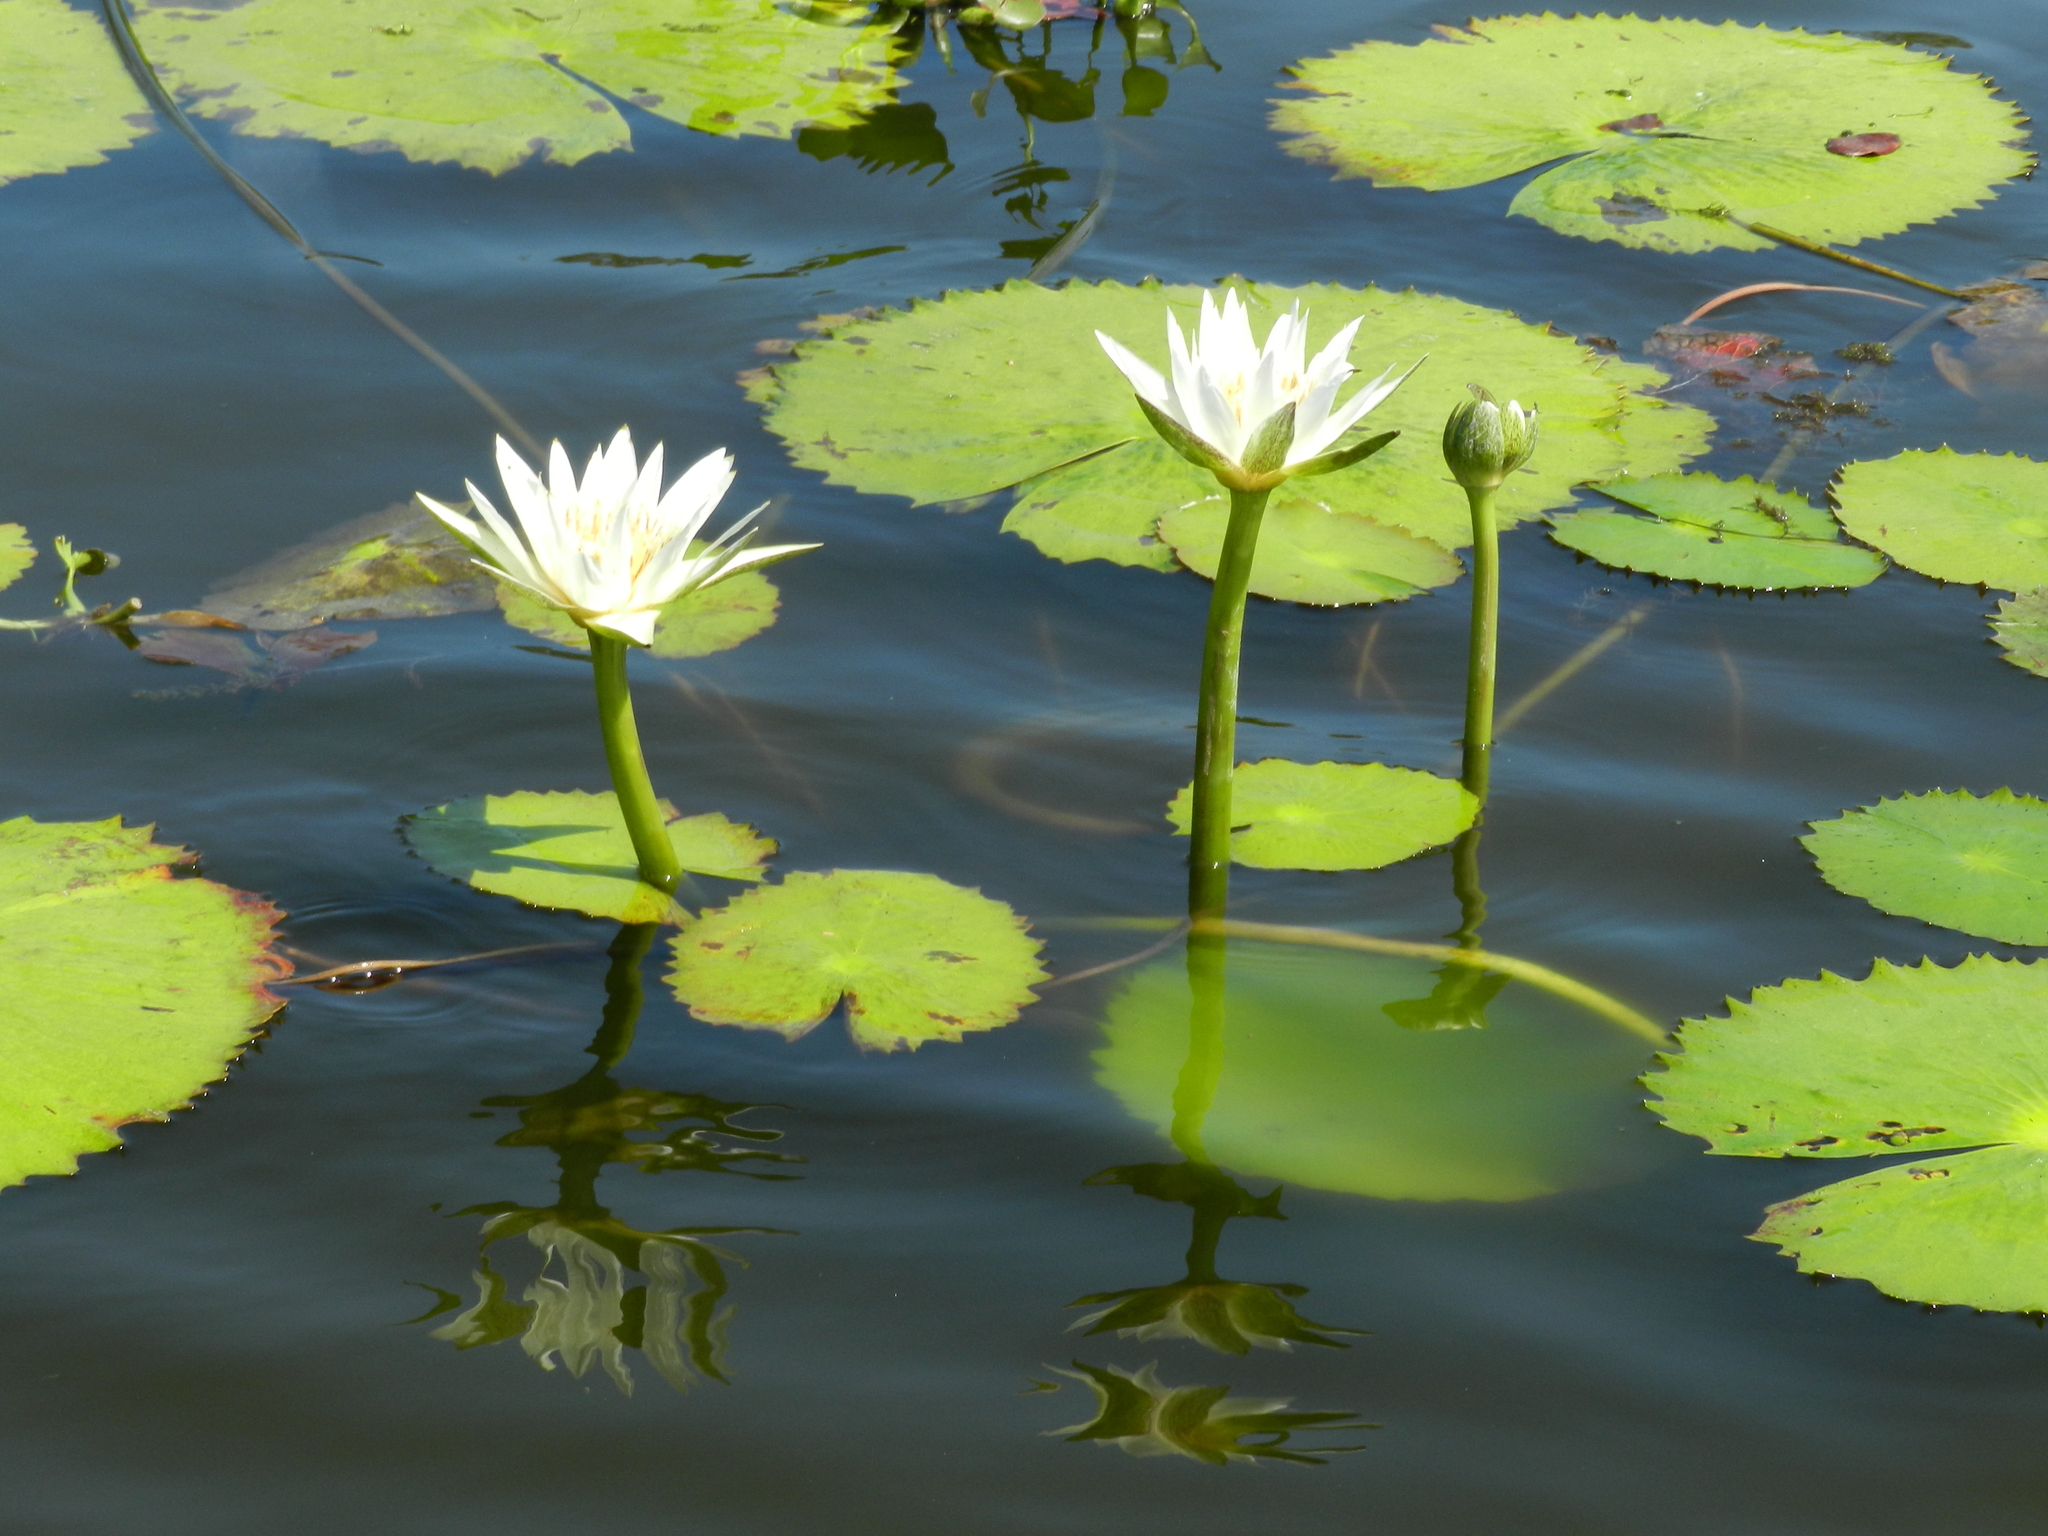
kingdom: Plantae
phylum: Tracheophyta
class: Magnoliopsida
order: Nymphaeales
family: Nymphaeaceae
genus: Nymphaea
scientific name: Nymphaea ampla
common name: Dotleaf waterlily
